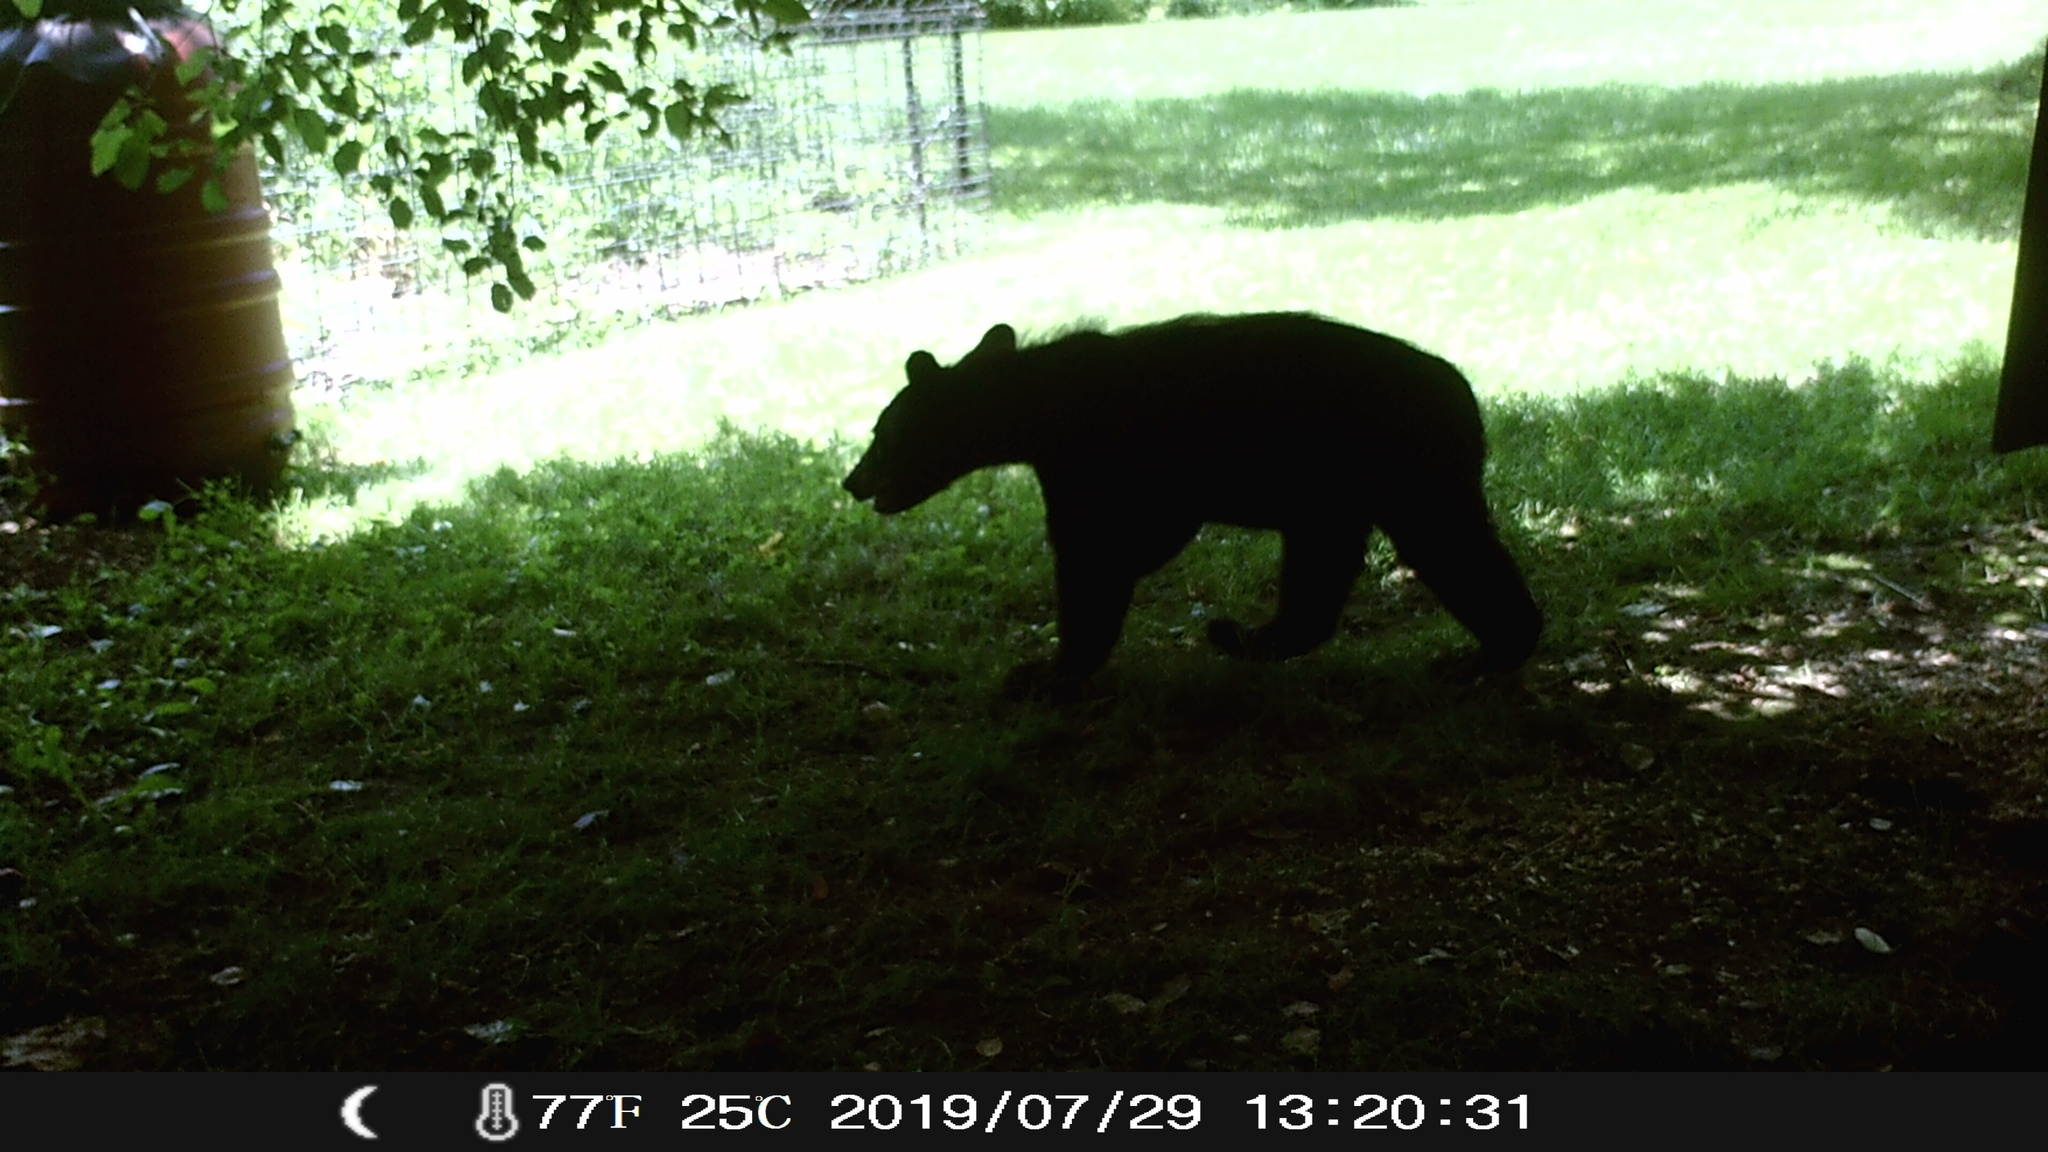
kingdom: Animalia
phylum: Chordata
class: Mammalia
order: Carnivora
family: Ursidae
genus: Ursus
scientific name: Ursus americanus
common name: American black bear
